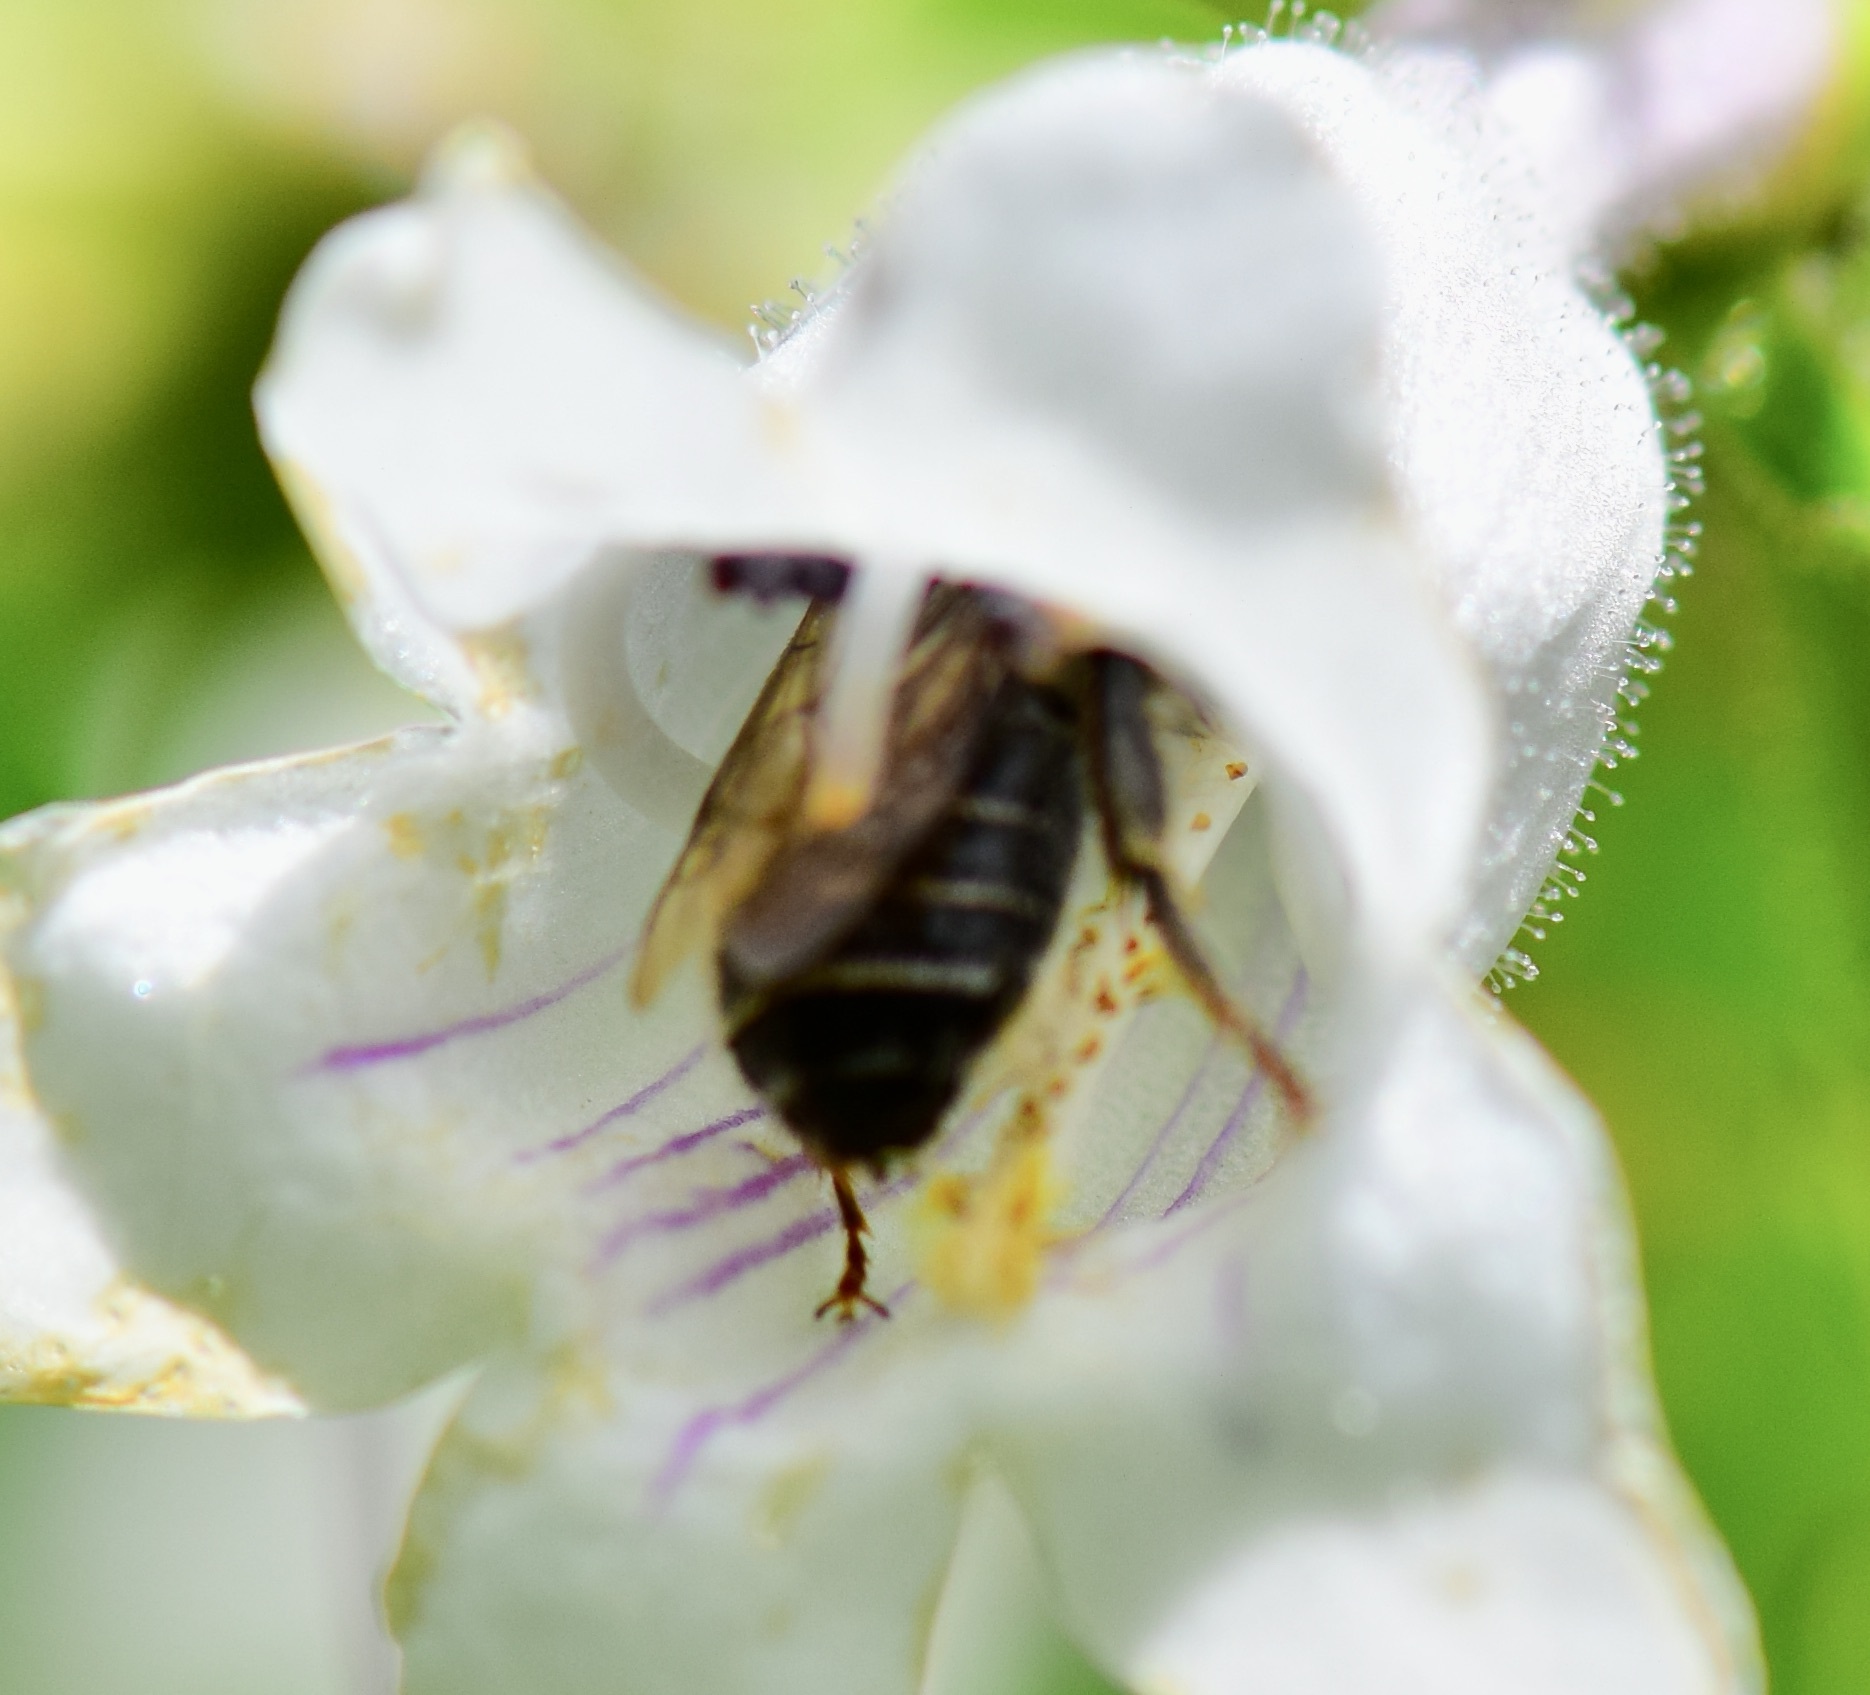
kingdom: Animalia
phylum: Arthropoda
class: Insecta
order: Hymenoptera
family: Apidae
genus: Anthophora
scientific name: Anthophora terminalis
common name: Orange-tipped wood-digger bee
